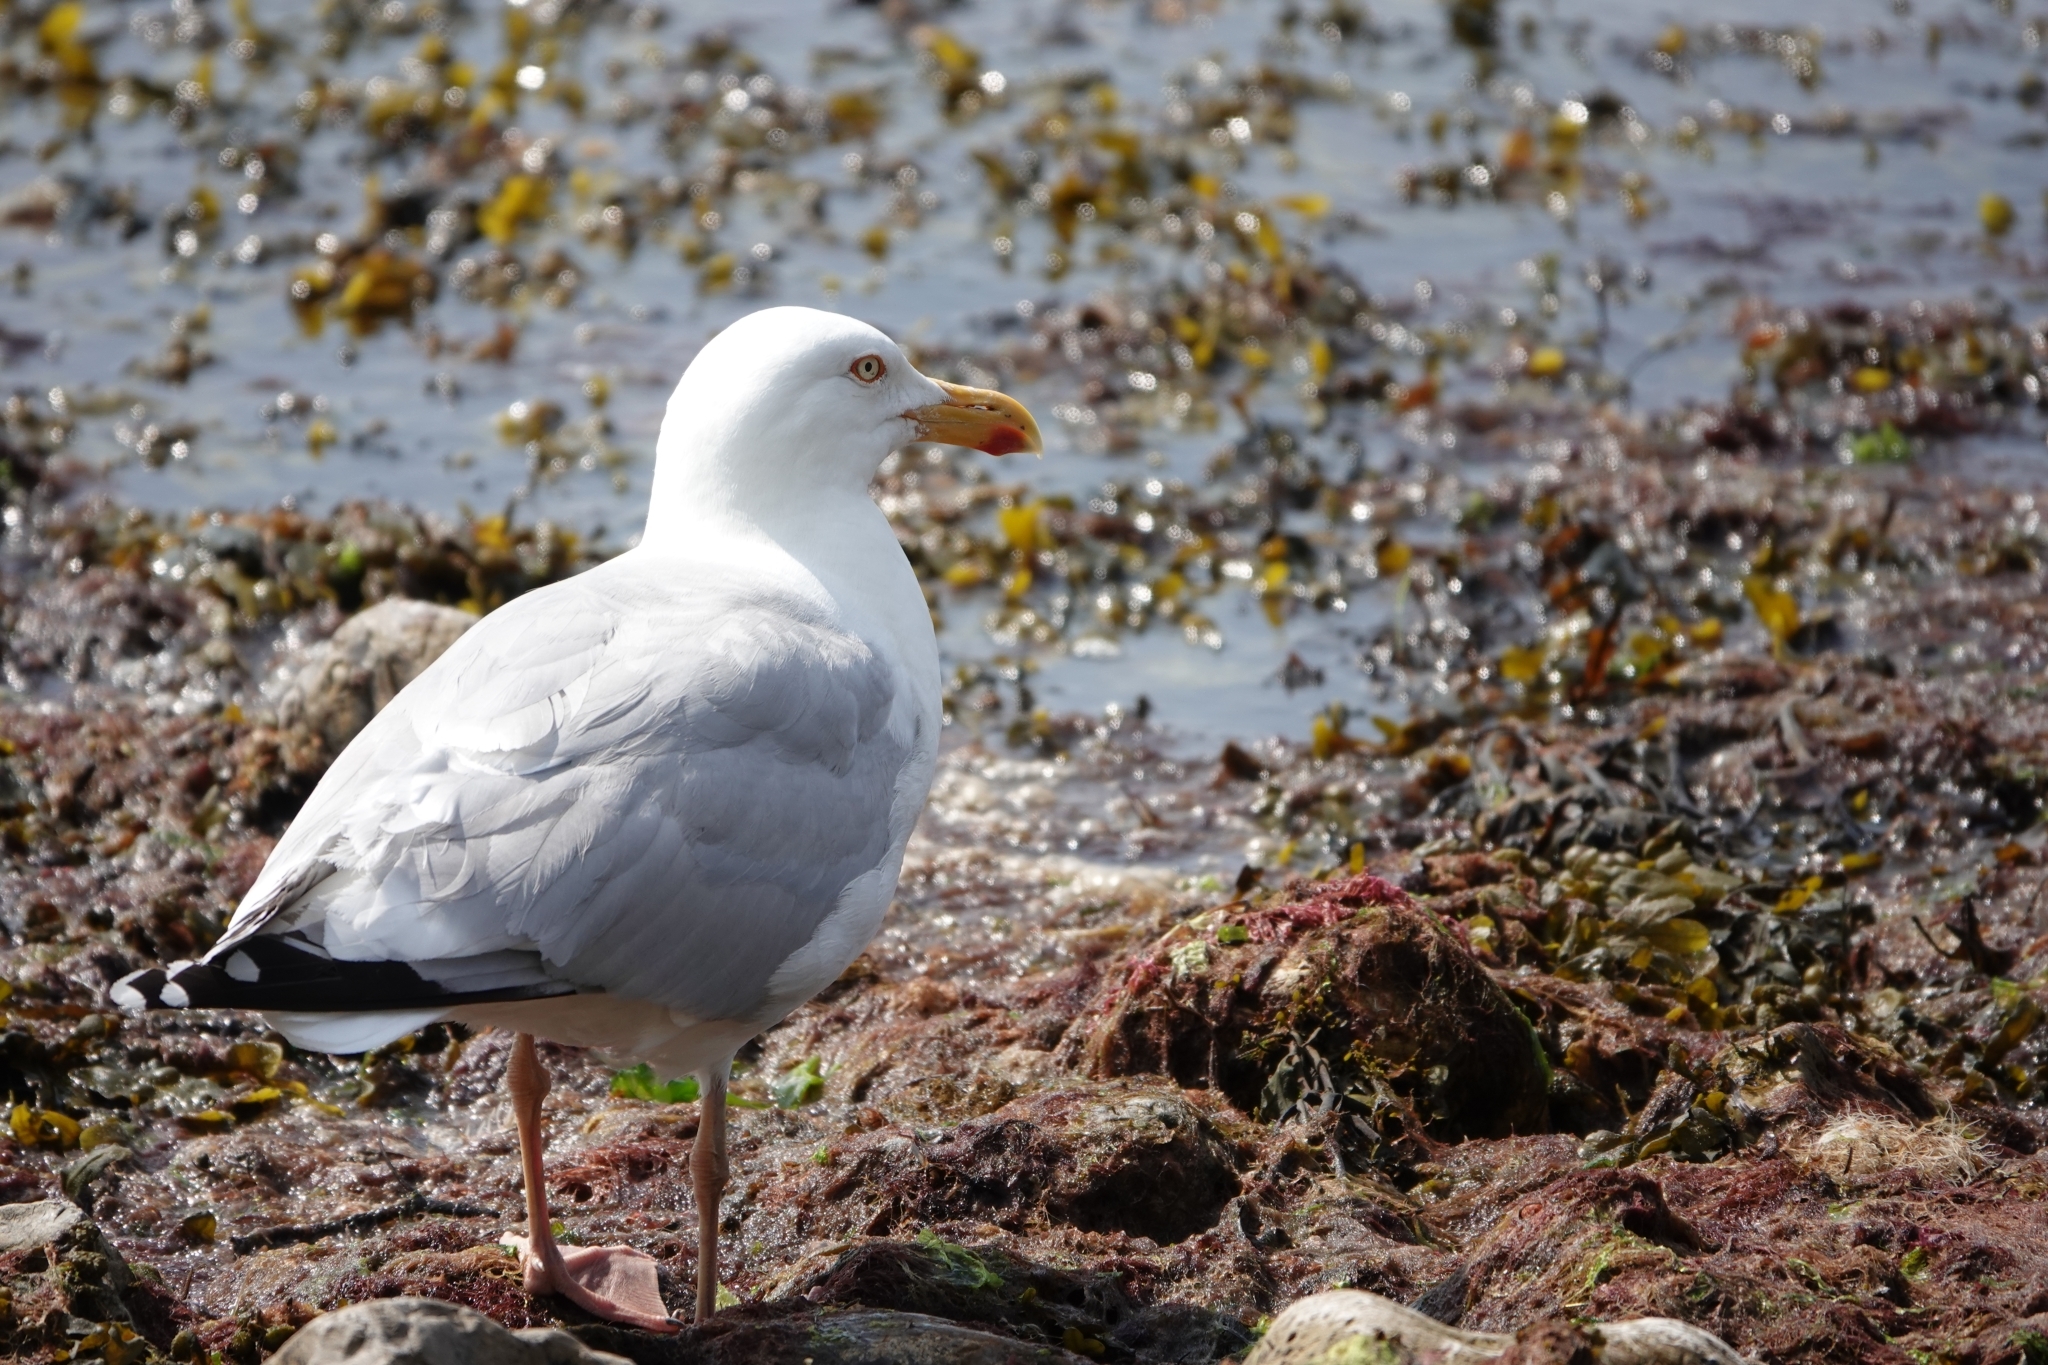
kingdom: Animalia
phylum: Chordata
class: Aves
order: Charadriiformes
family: Laridae
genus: Larus
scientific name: Larus argentatus
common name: Herring gull
